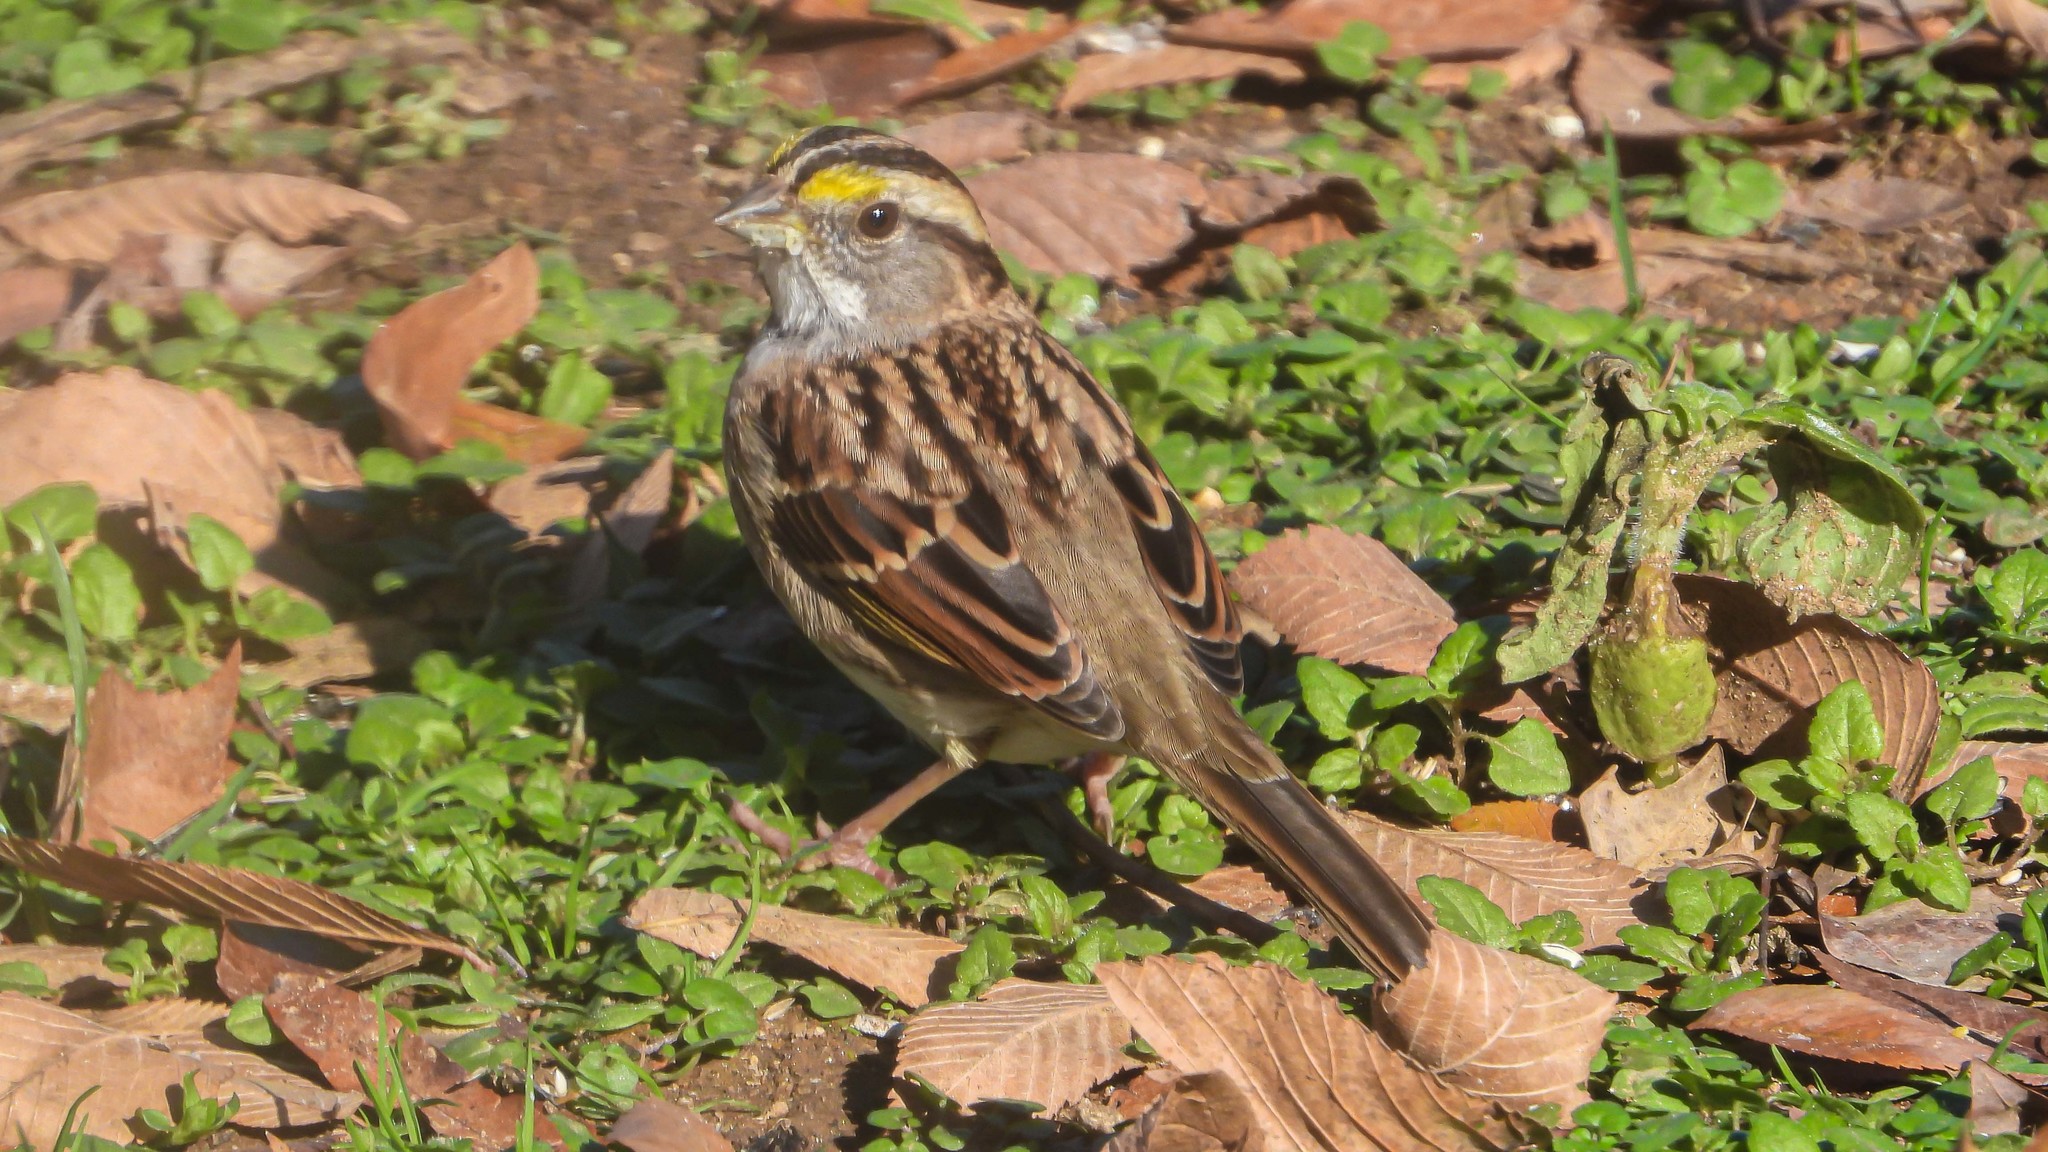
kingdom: Animalia
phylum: Chordata
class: Aves
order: Passeriformes
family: Passerellidae
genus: Zonotrichia
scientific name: Zonotrichia albicollis
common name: White-throated sparrow
